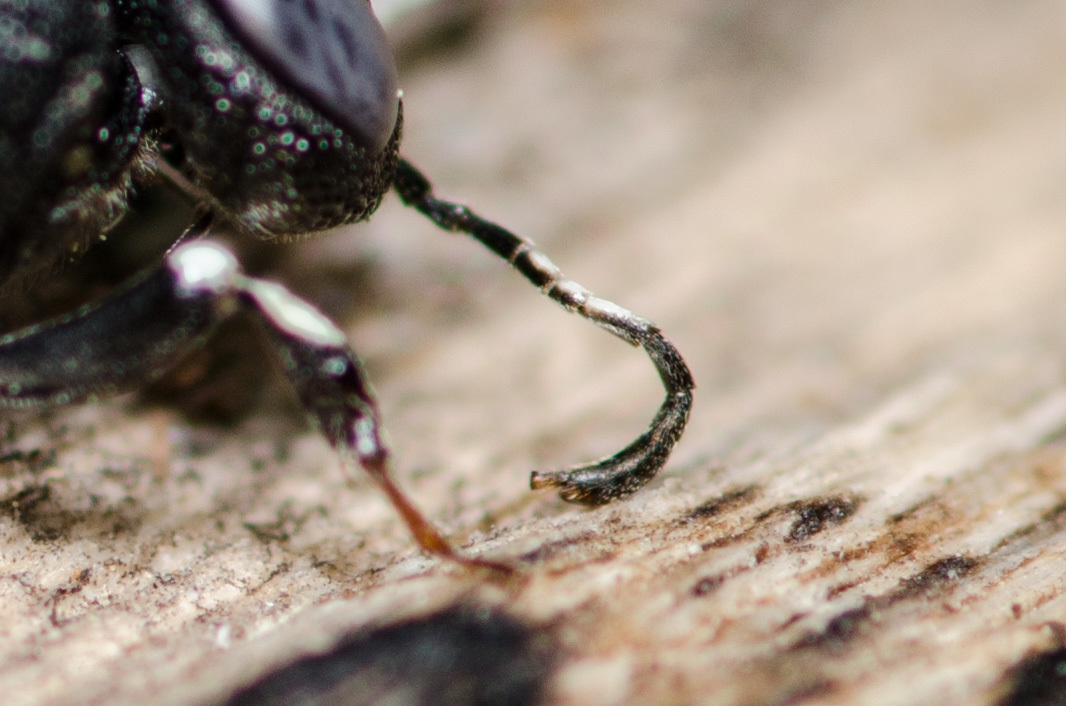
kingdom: Animalia
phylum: Arthropoda
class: Insecta
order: Hymenoptera
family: Orussusidae
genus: Orussus
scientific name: Orussus minutus
